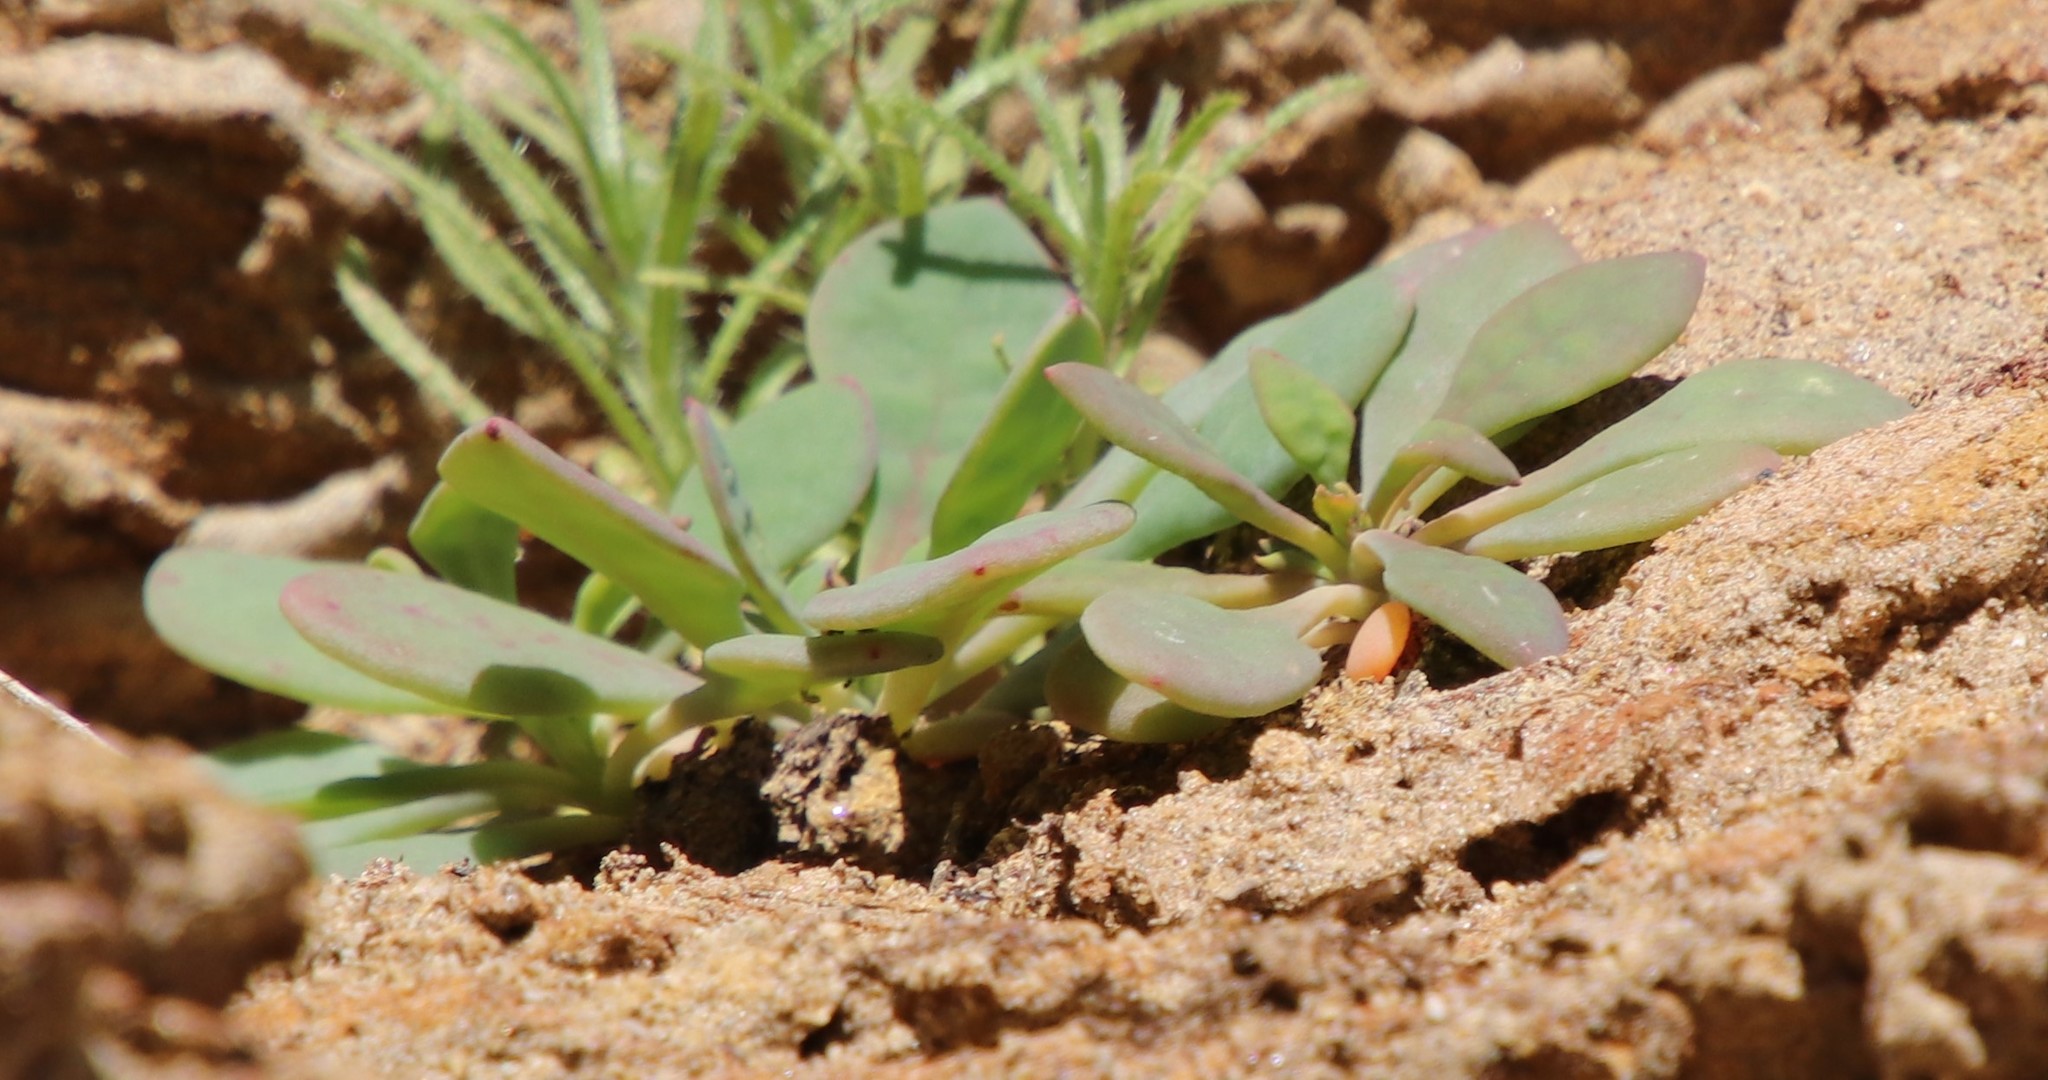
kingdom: Plantae
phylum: Tracheophyta
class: Magnoliopsida
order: Caryophyllales
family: Montiaceae
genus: Cistanthe
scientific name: Cistanthe maritima
